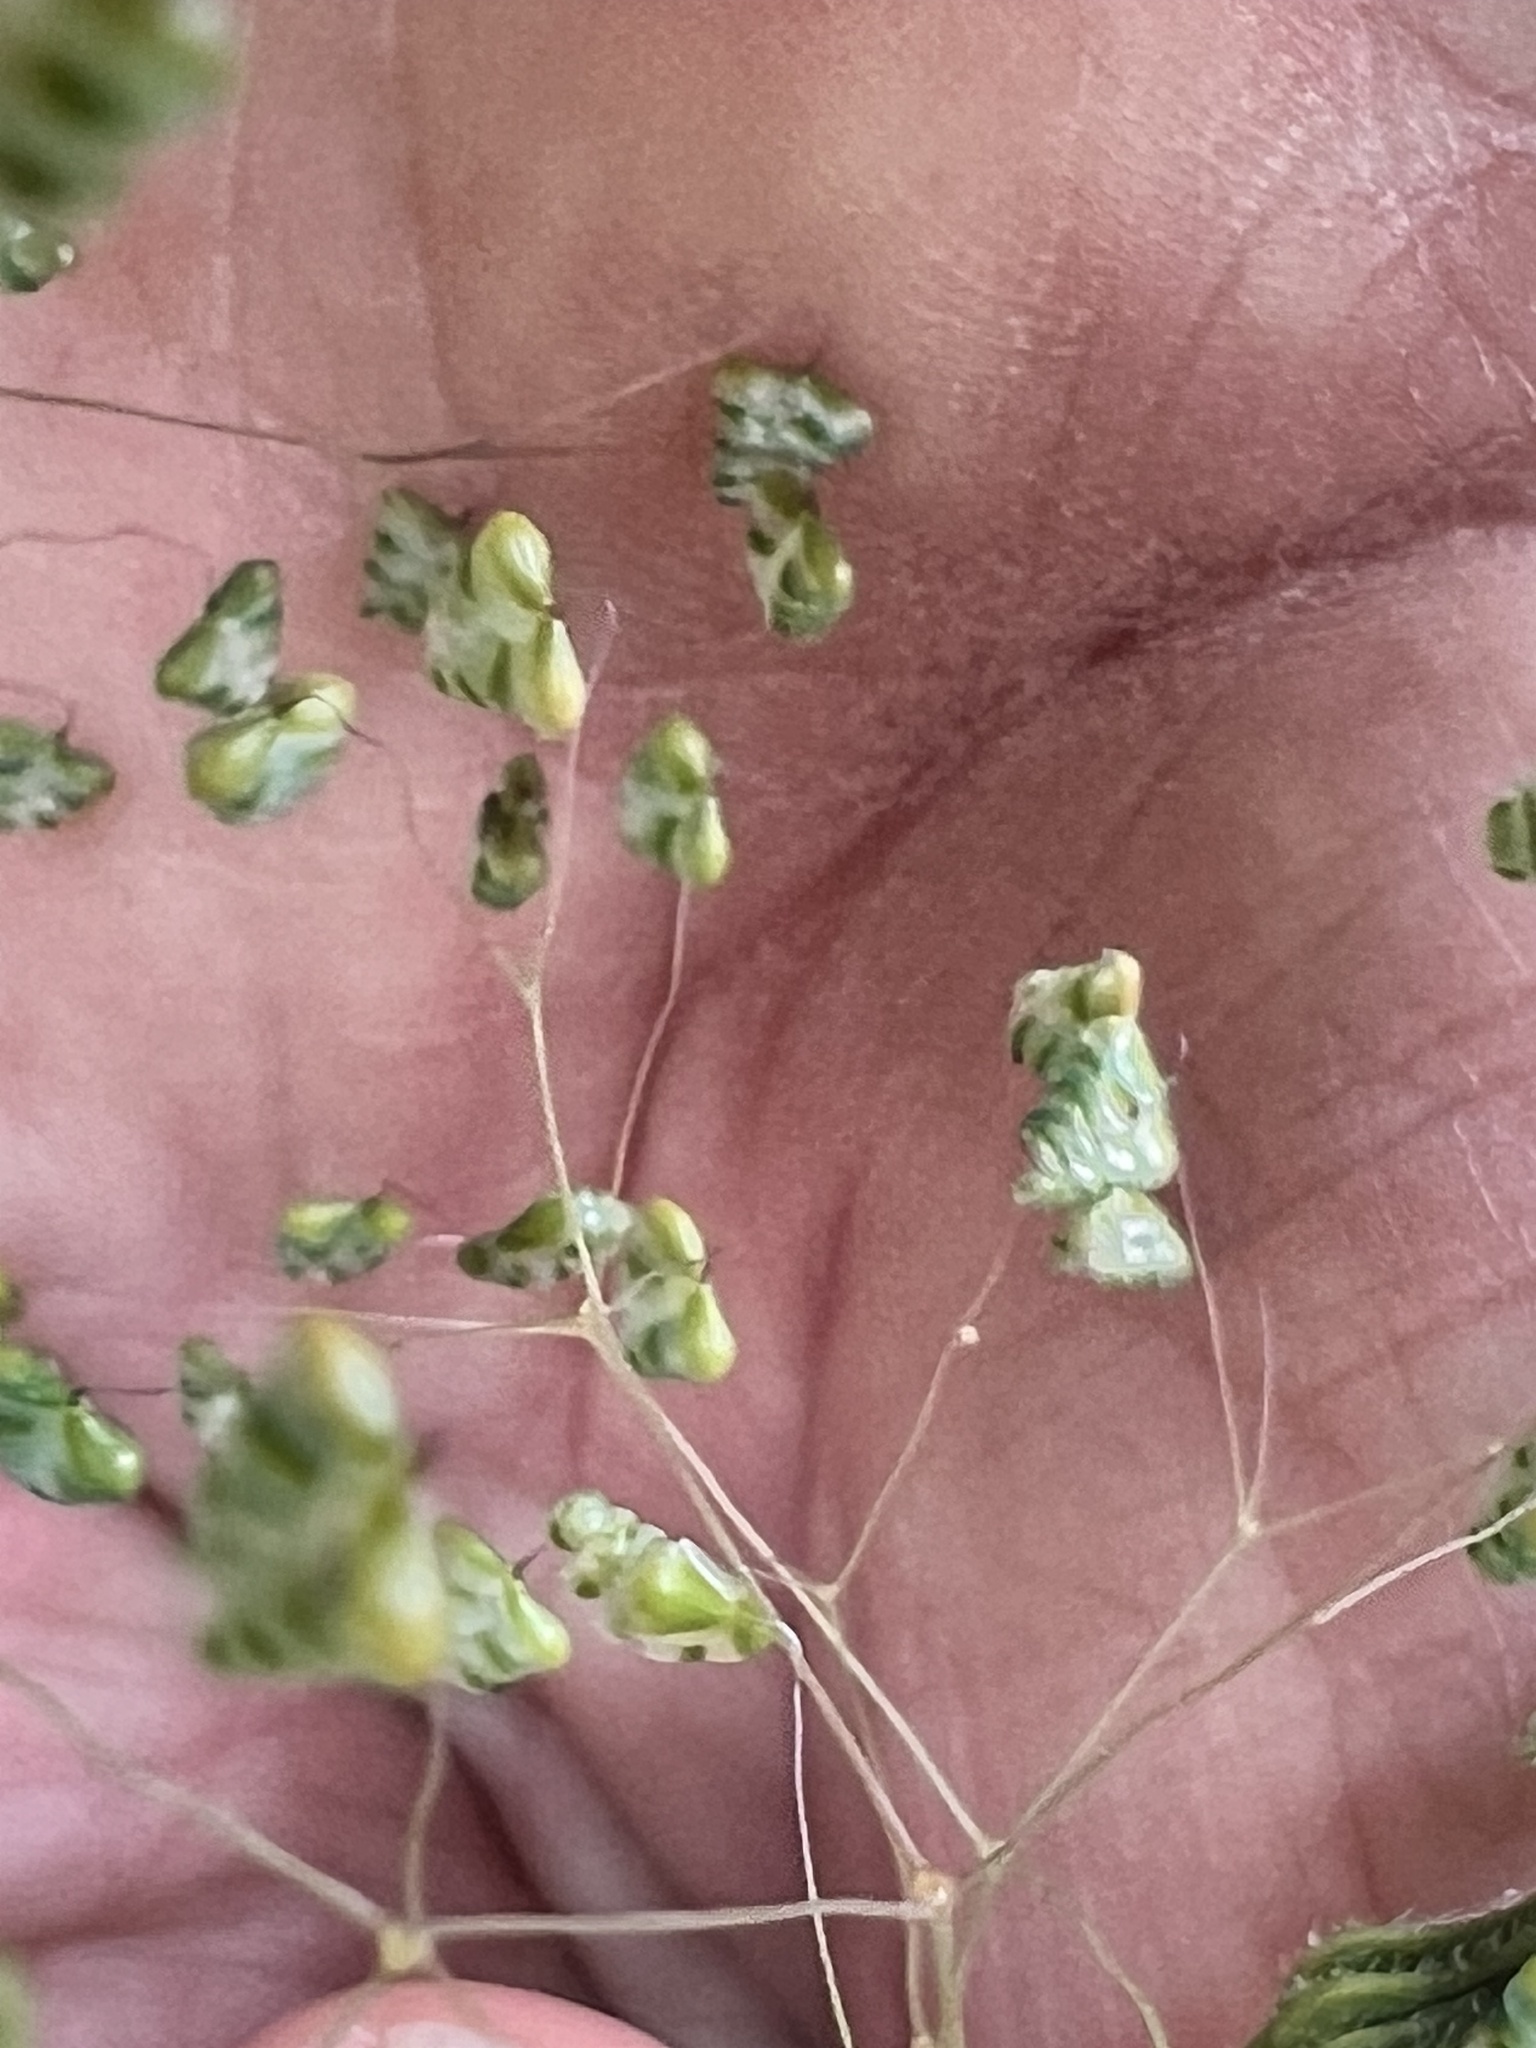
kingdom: Plantae
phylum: Tracheophyta
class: Liliopsida
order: Poales
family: Poaceae
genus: Briza
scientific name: Briza minor
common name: Lesser quaking-grass
